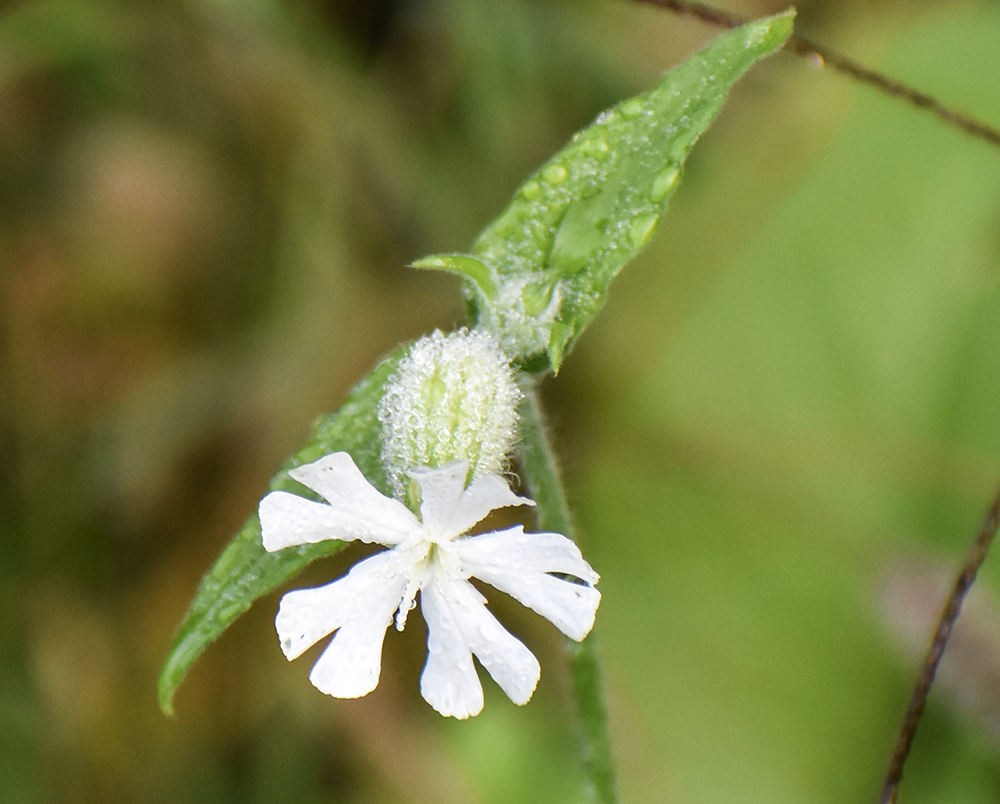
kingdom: Plantae
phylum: Tracheophyta
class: Magnoliopsida
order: Caryophyllales
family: Caryophyllaceae
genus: Silene
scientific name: Silene latifolia
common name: White campion
